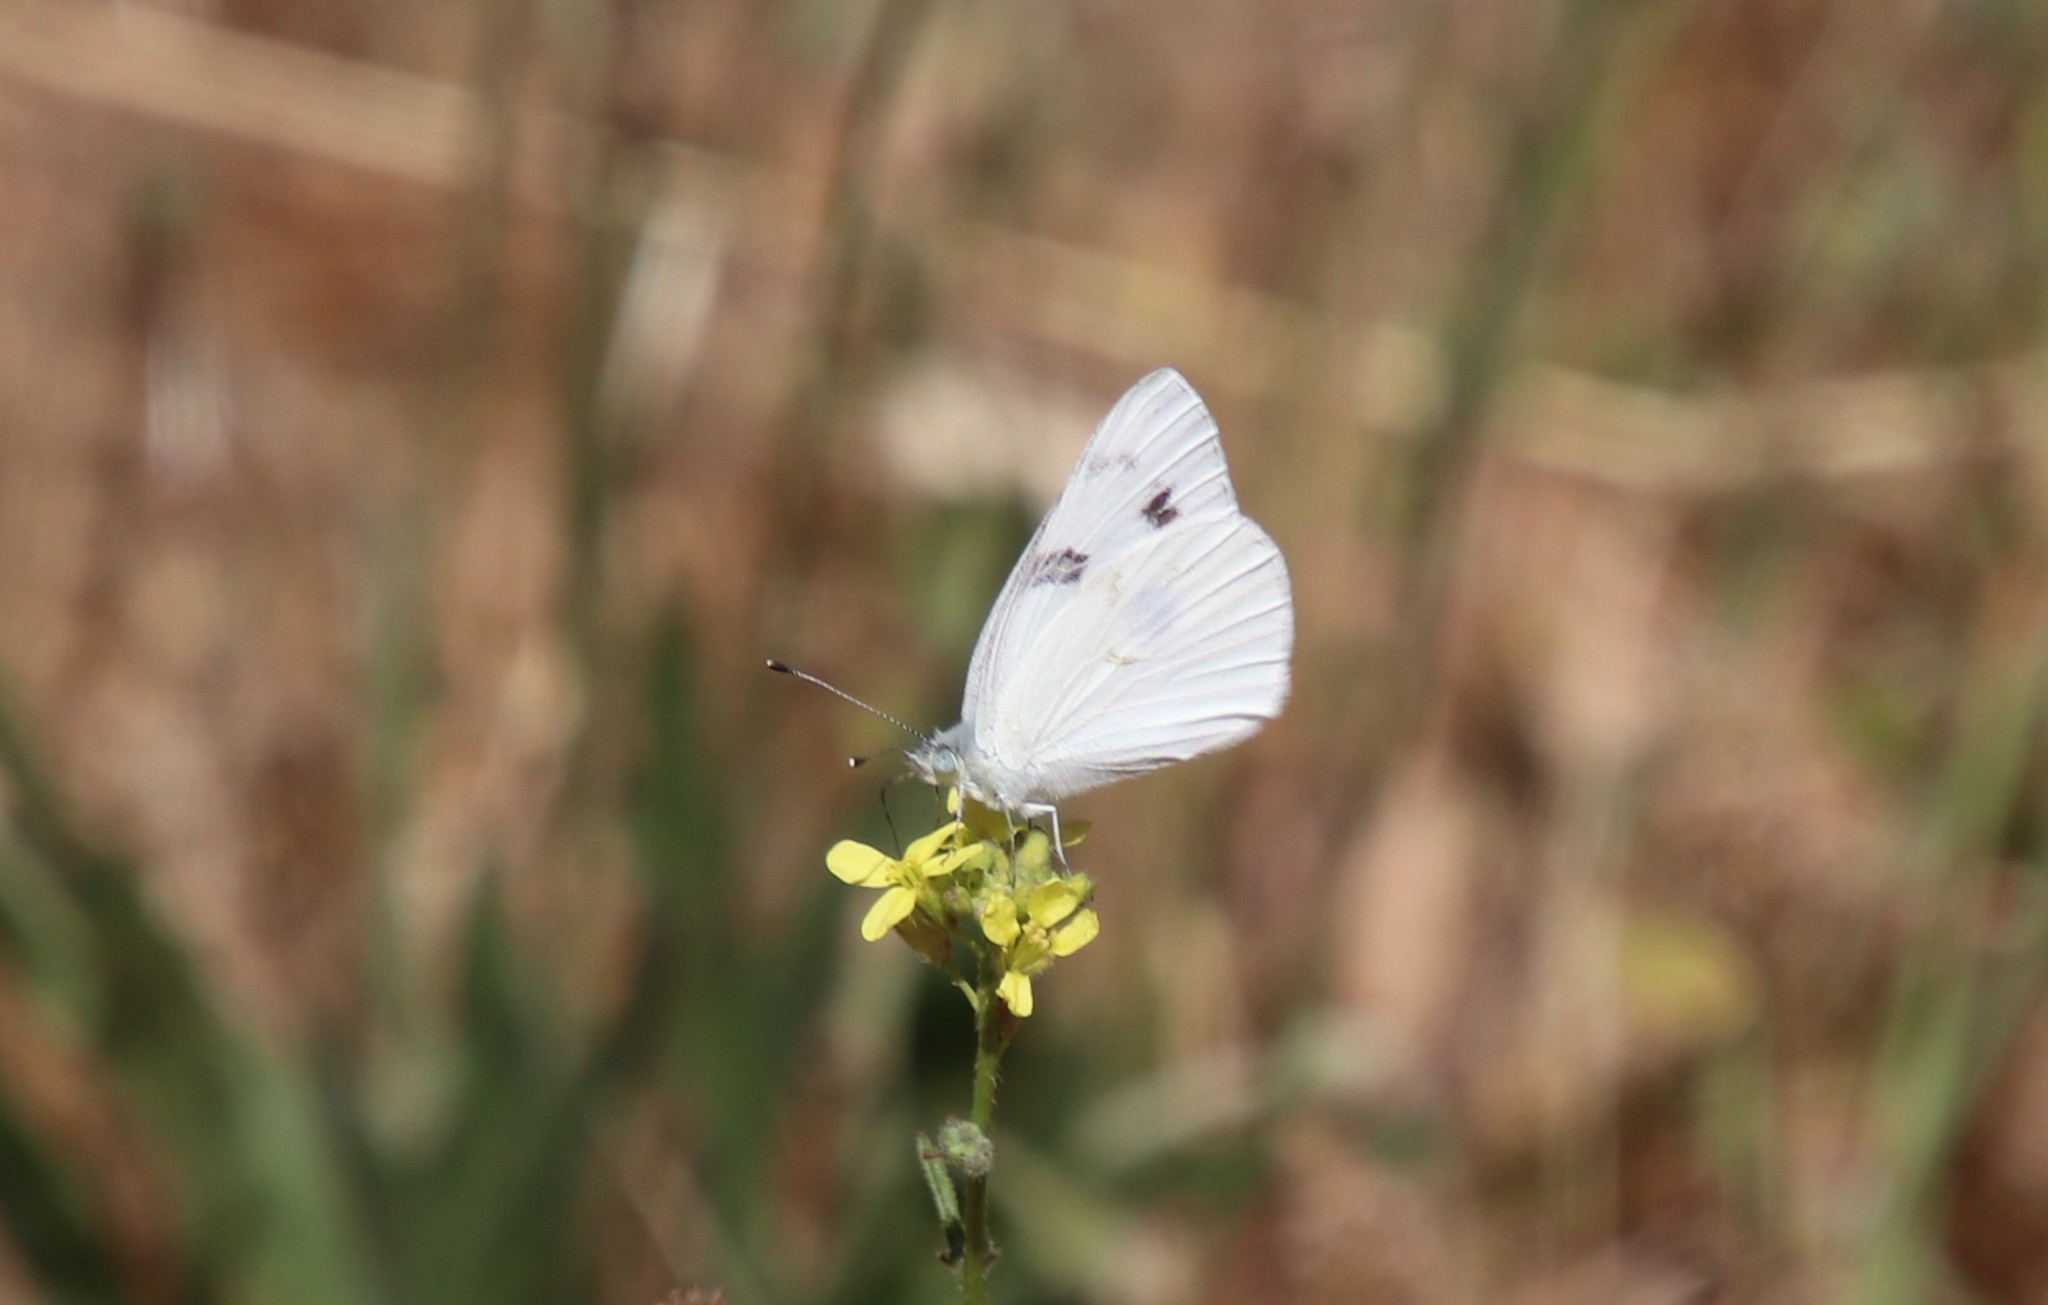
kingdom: Animalia
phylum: Arthropoda
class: Insecta
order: Lepidoptera
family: Pieridae
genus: Pontia
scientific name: Pontia protodice
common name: Checkered white
